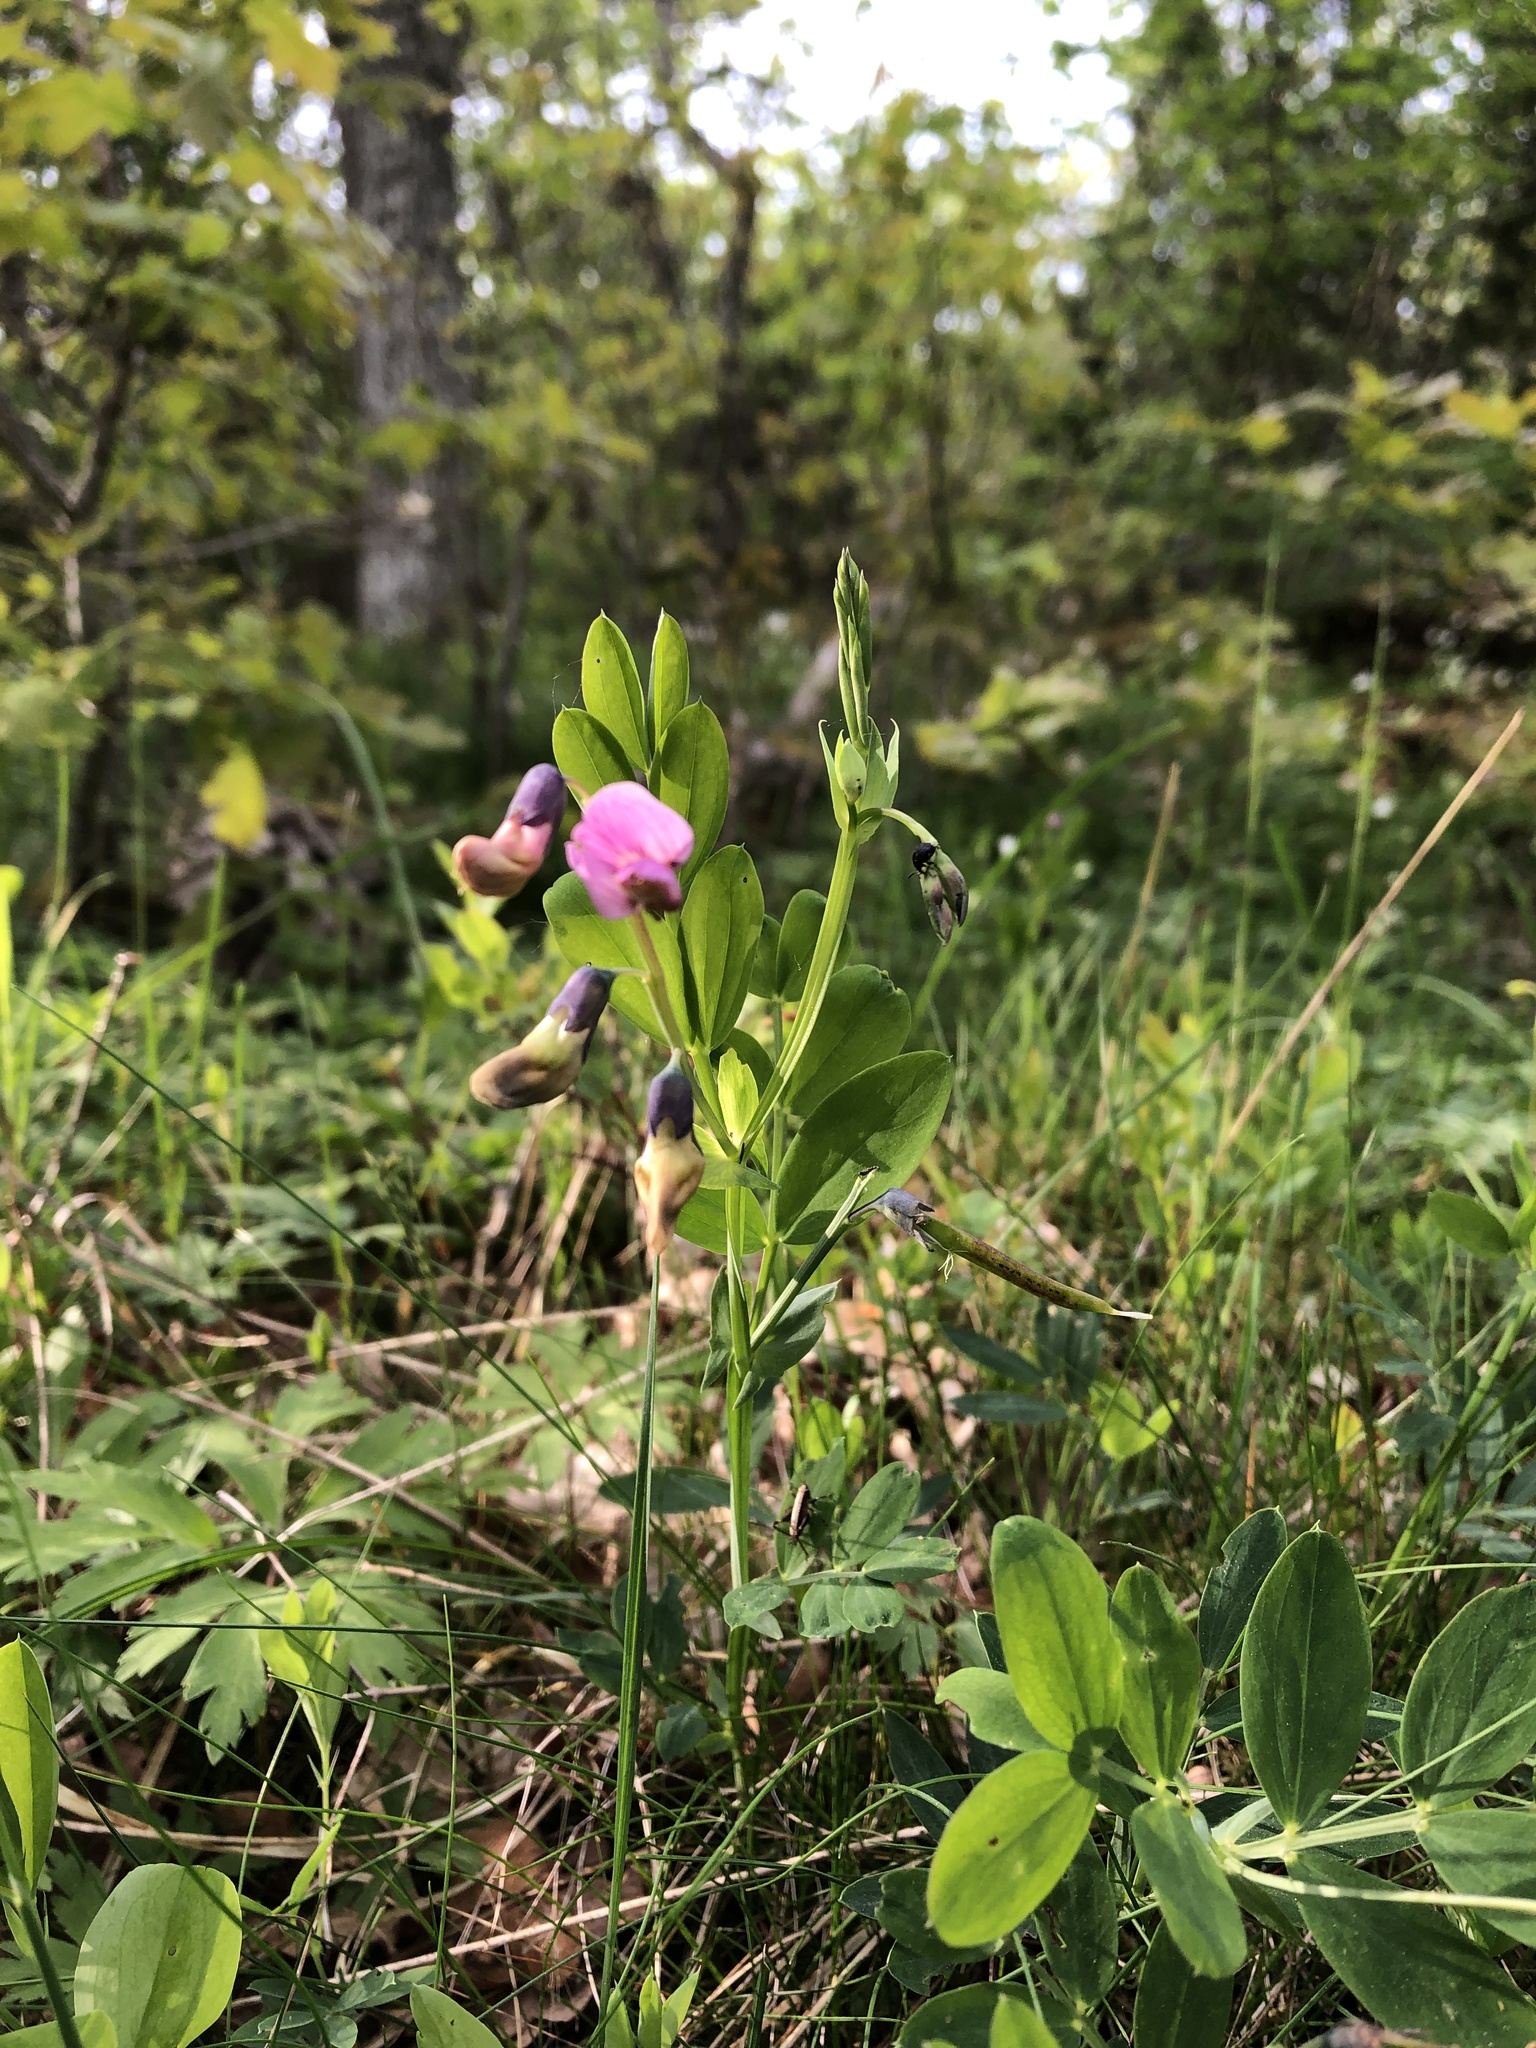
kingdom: Plantae
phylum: Tracheophyta
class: Magnoliopsida
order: Fabales
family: Fabaceae
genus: Lathyrus
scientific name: Lathyrus linifolius
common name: Bitter-vetch
